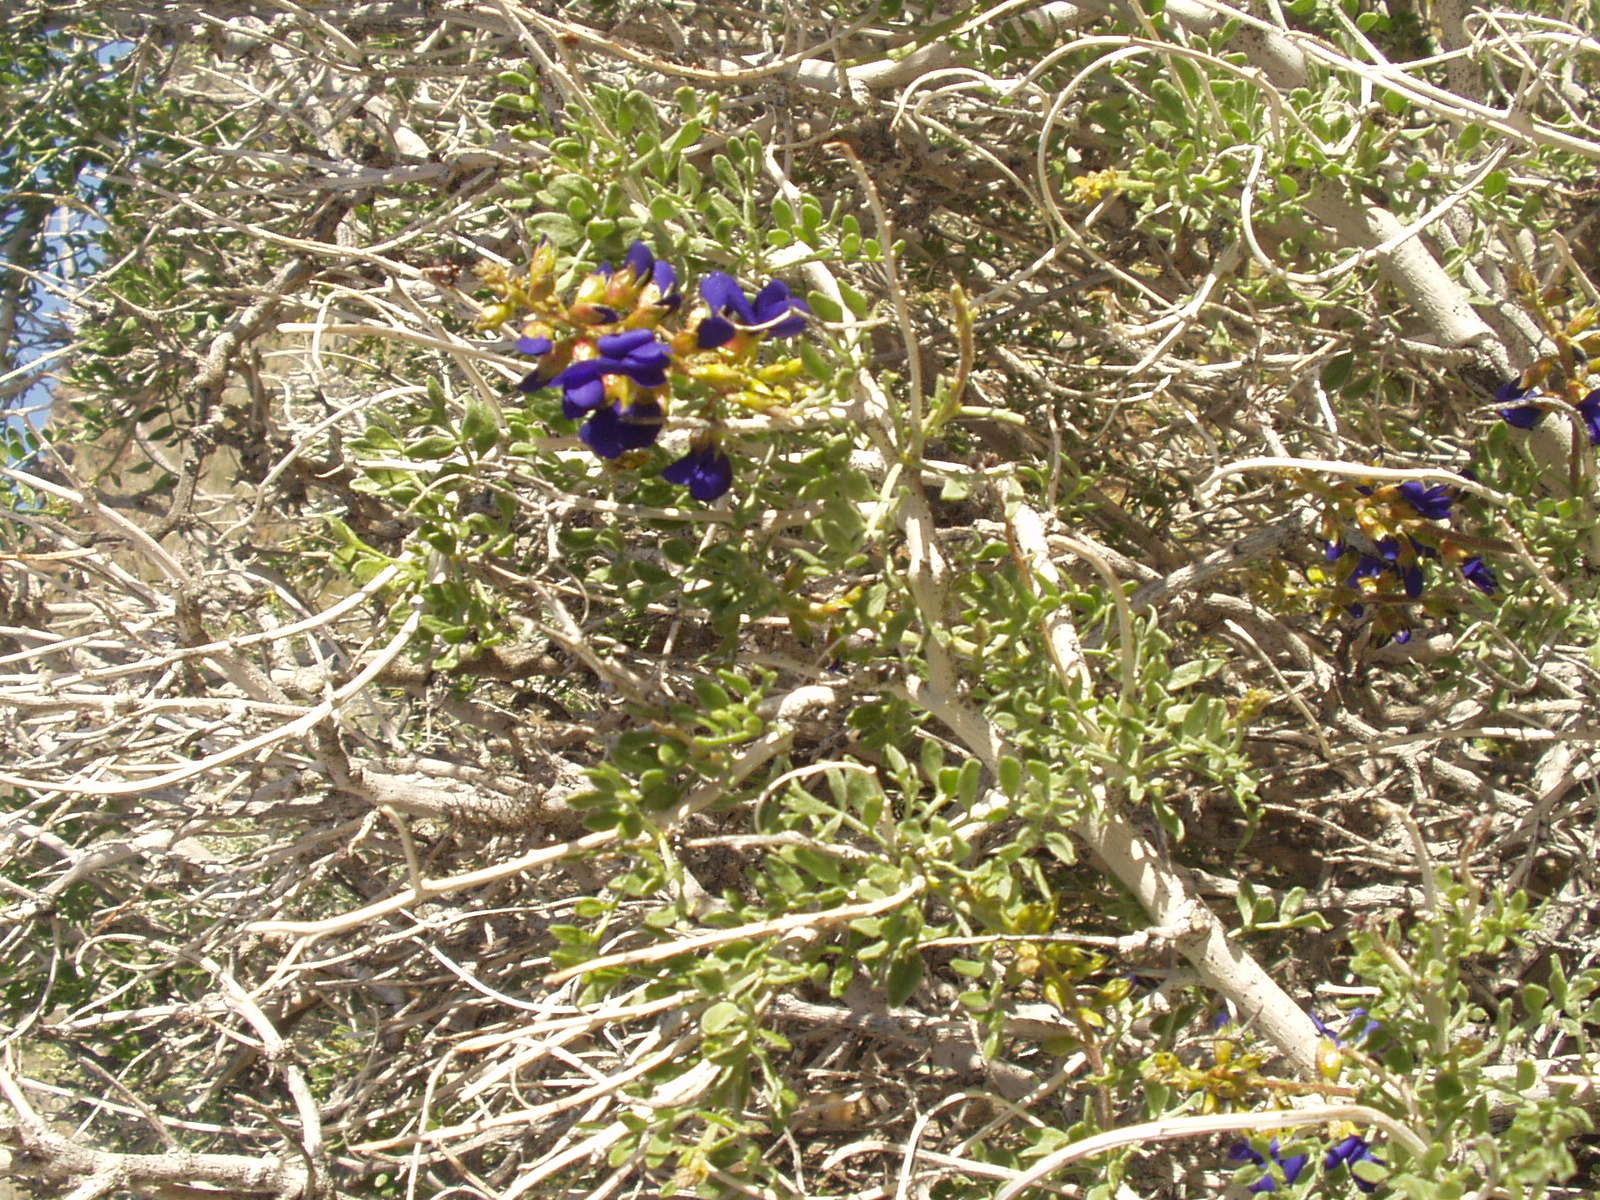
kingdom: Plantae
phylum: Tracheophyta
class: Magnoliopsida
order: Fabales
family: Fabaceae
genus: Psorothamnus
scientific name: Psorothamnus arborescens
